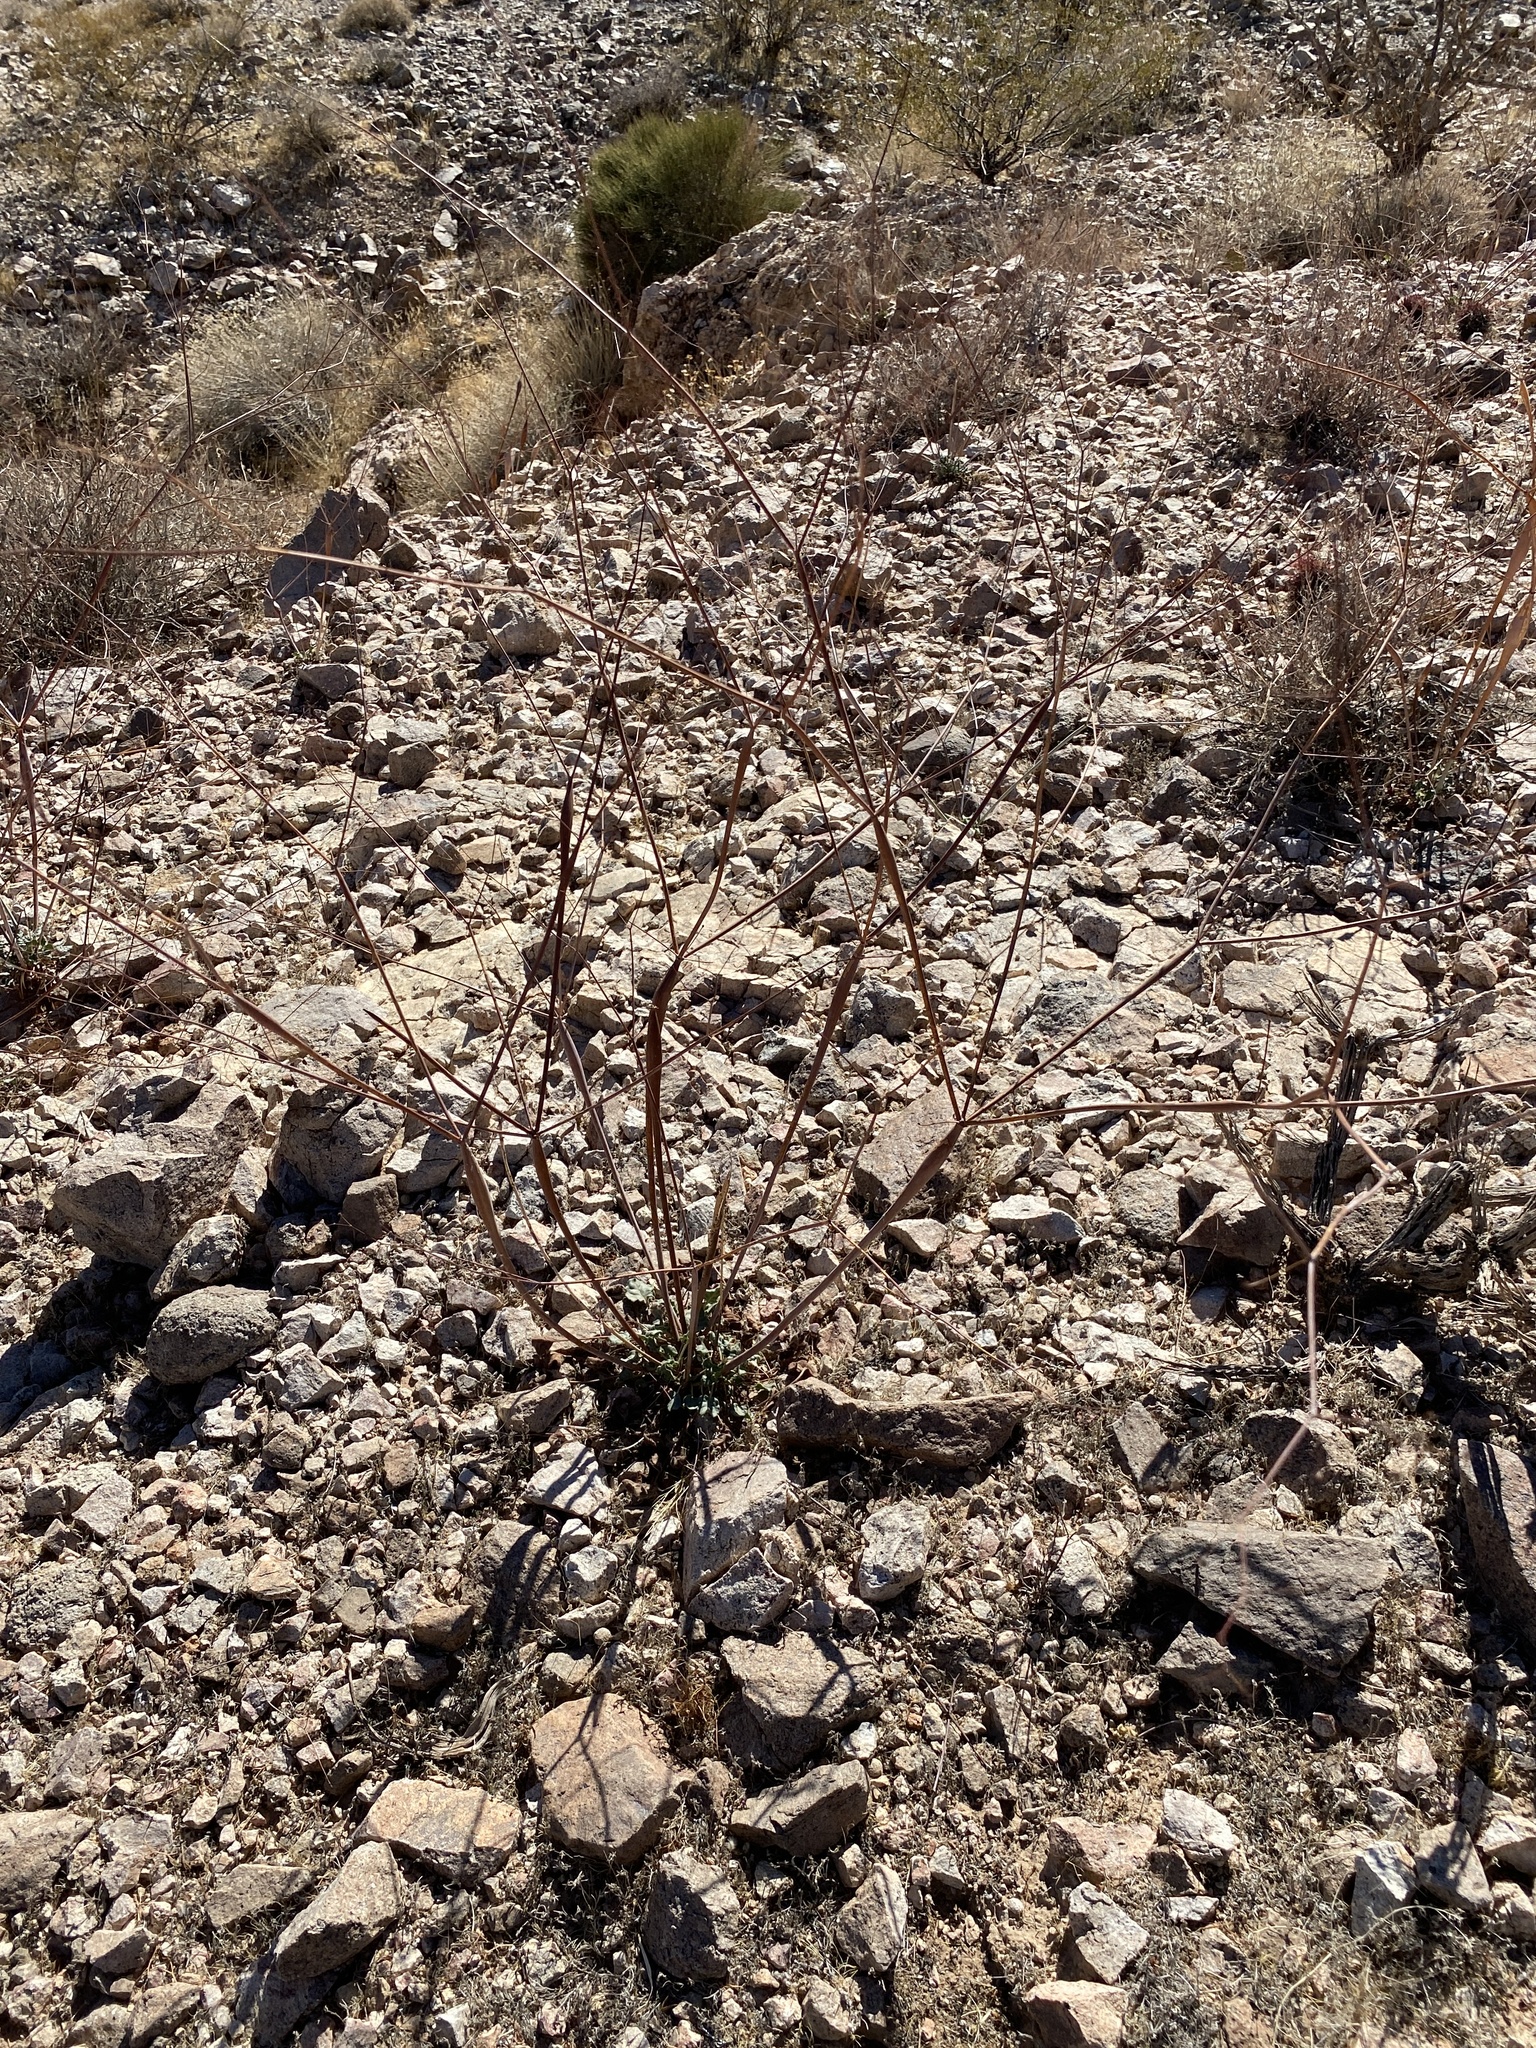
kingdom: Plantae
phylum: Tracheophyta
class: Magnoliopsida
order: Caryophyllales
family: Polygonaceae
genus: Eriogonum
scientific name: Eriogonum inflatum
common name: Desert trumpet
